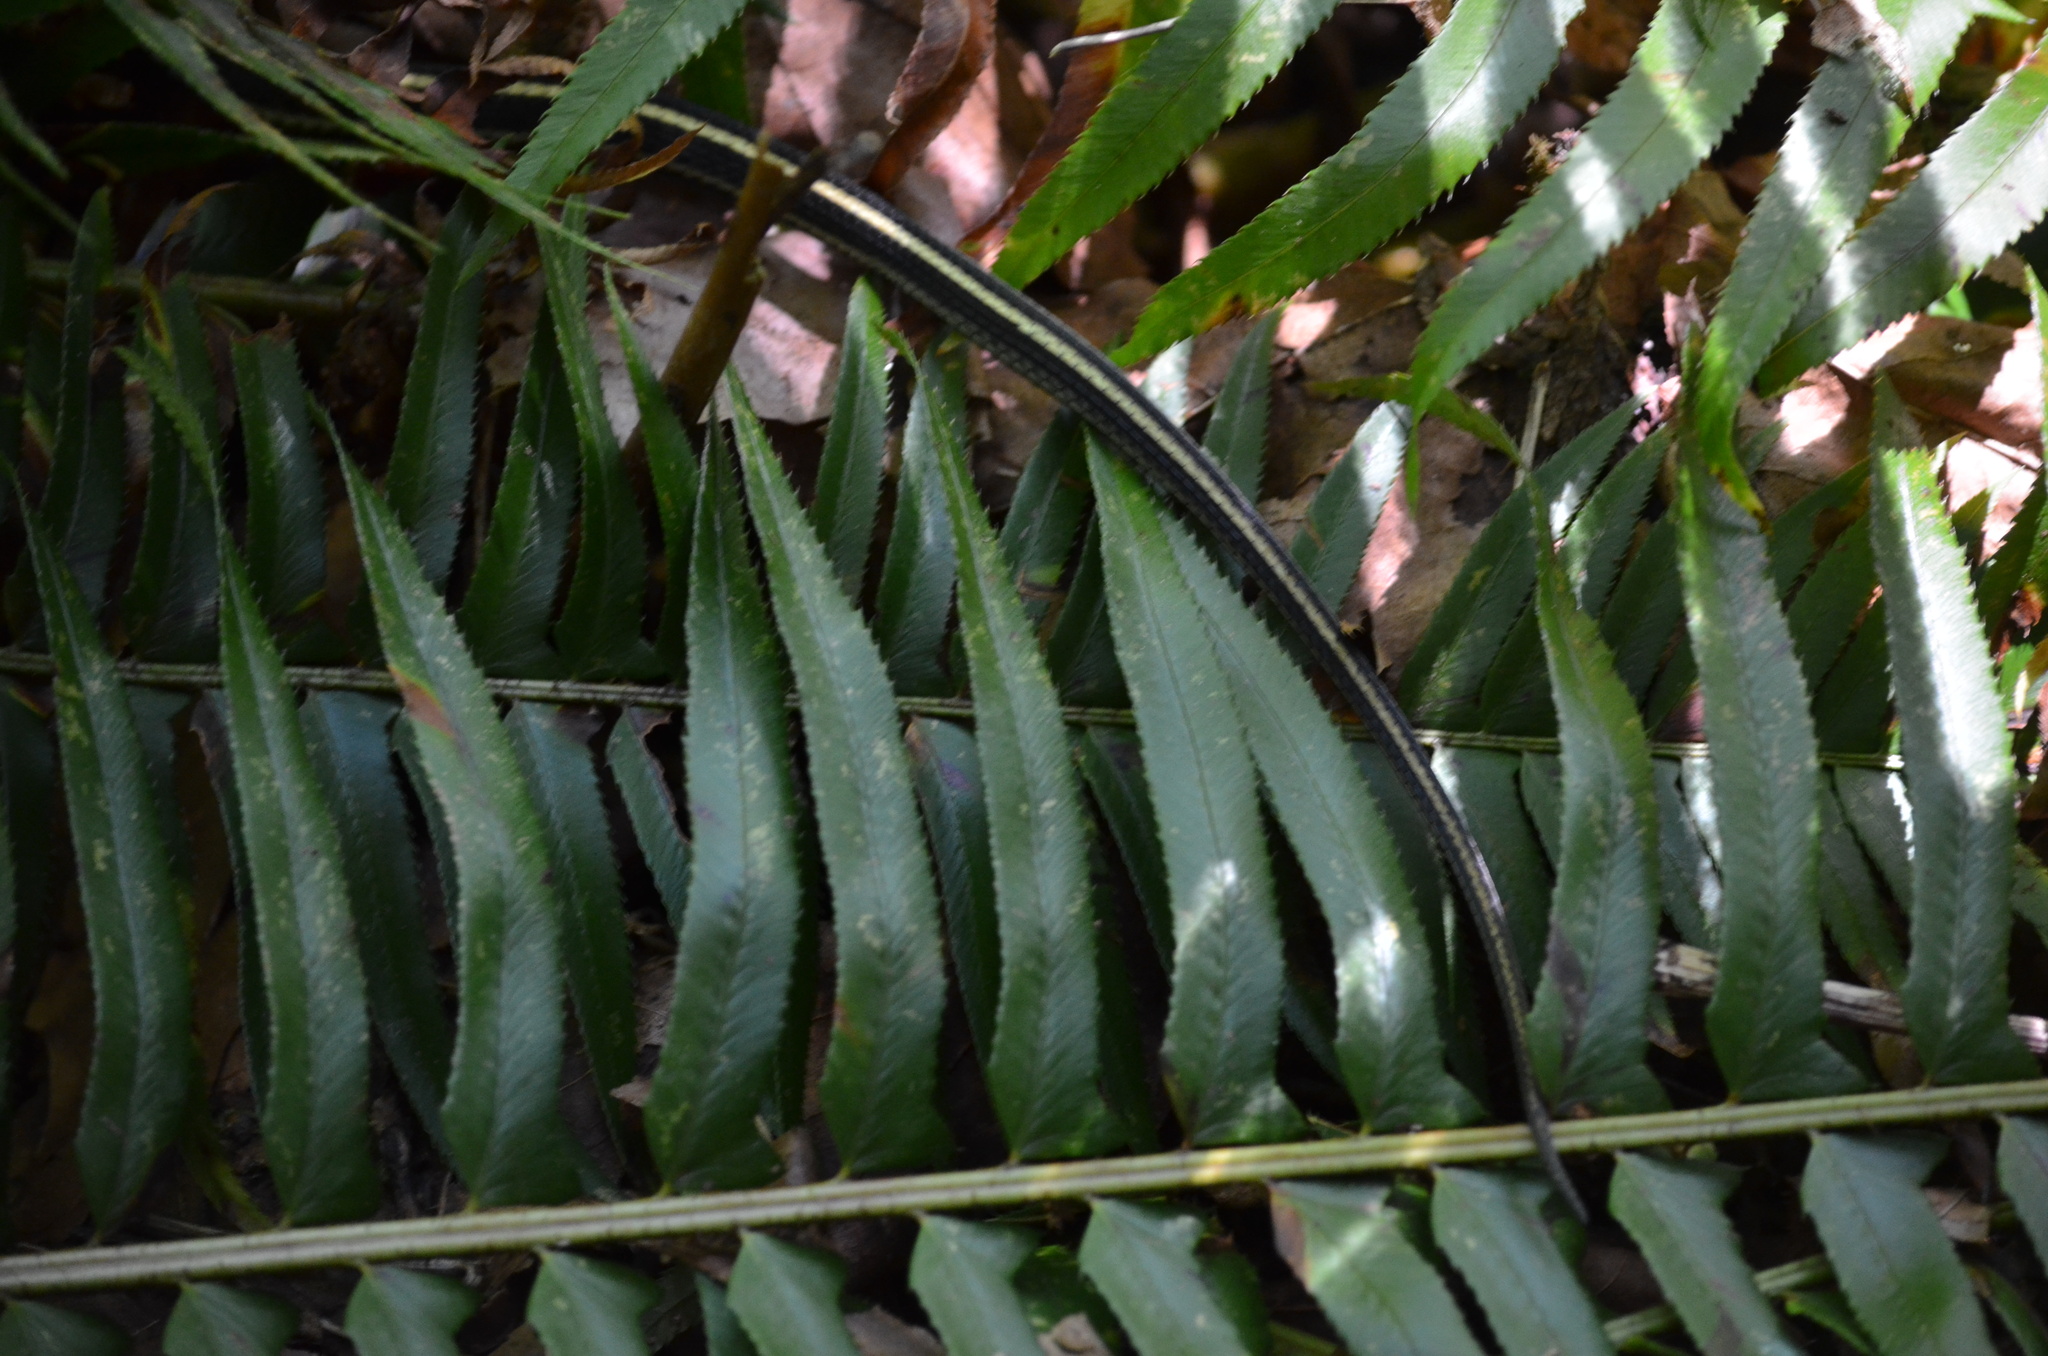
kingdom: Animalia
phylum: Chordata
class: Squamata
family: Colubridae
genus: Thamnophis
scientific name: Thamnophis sirtalis
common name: Common garter snake
